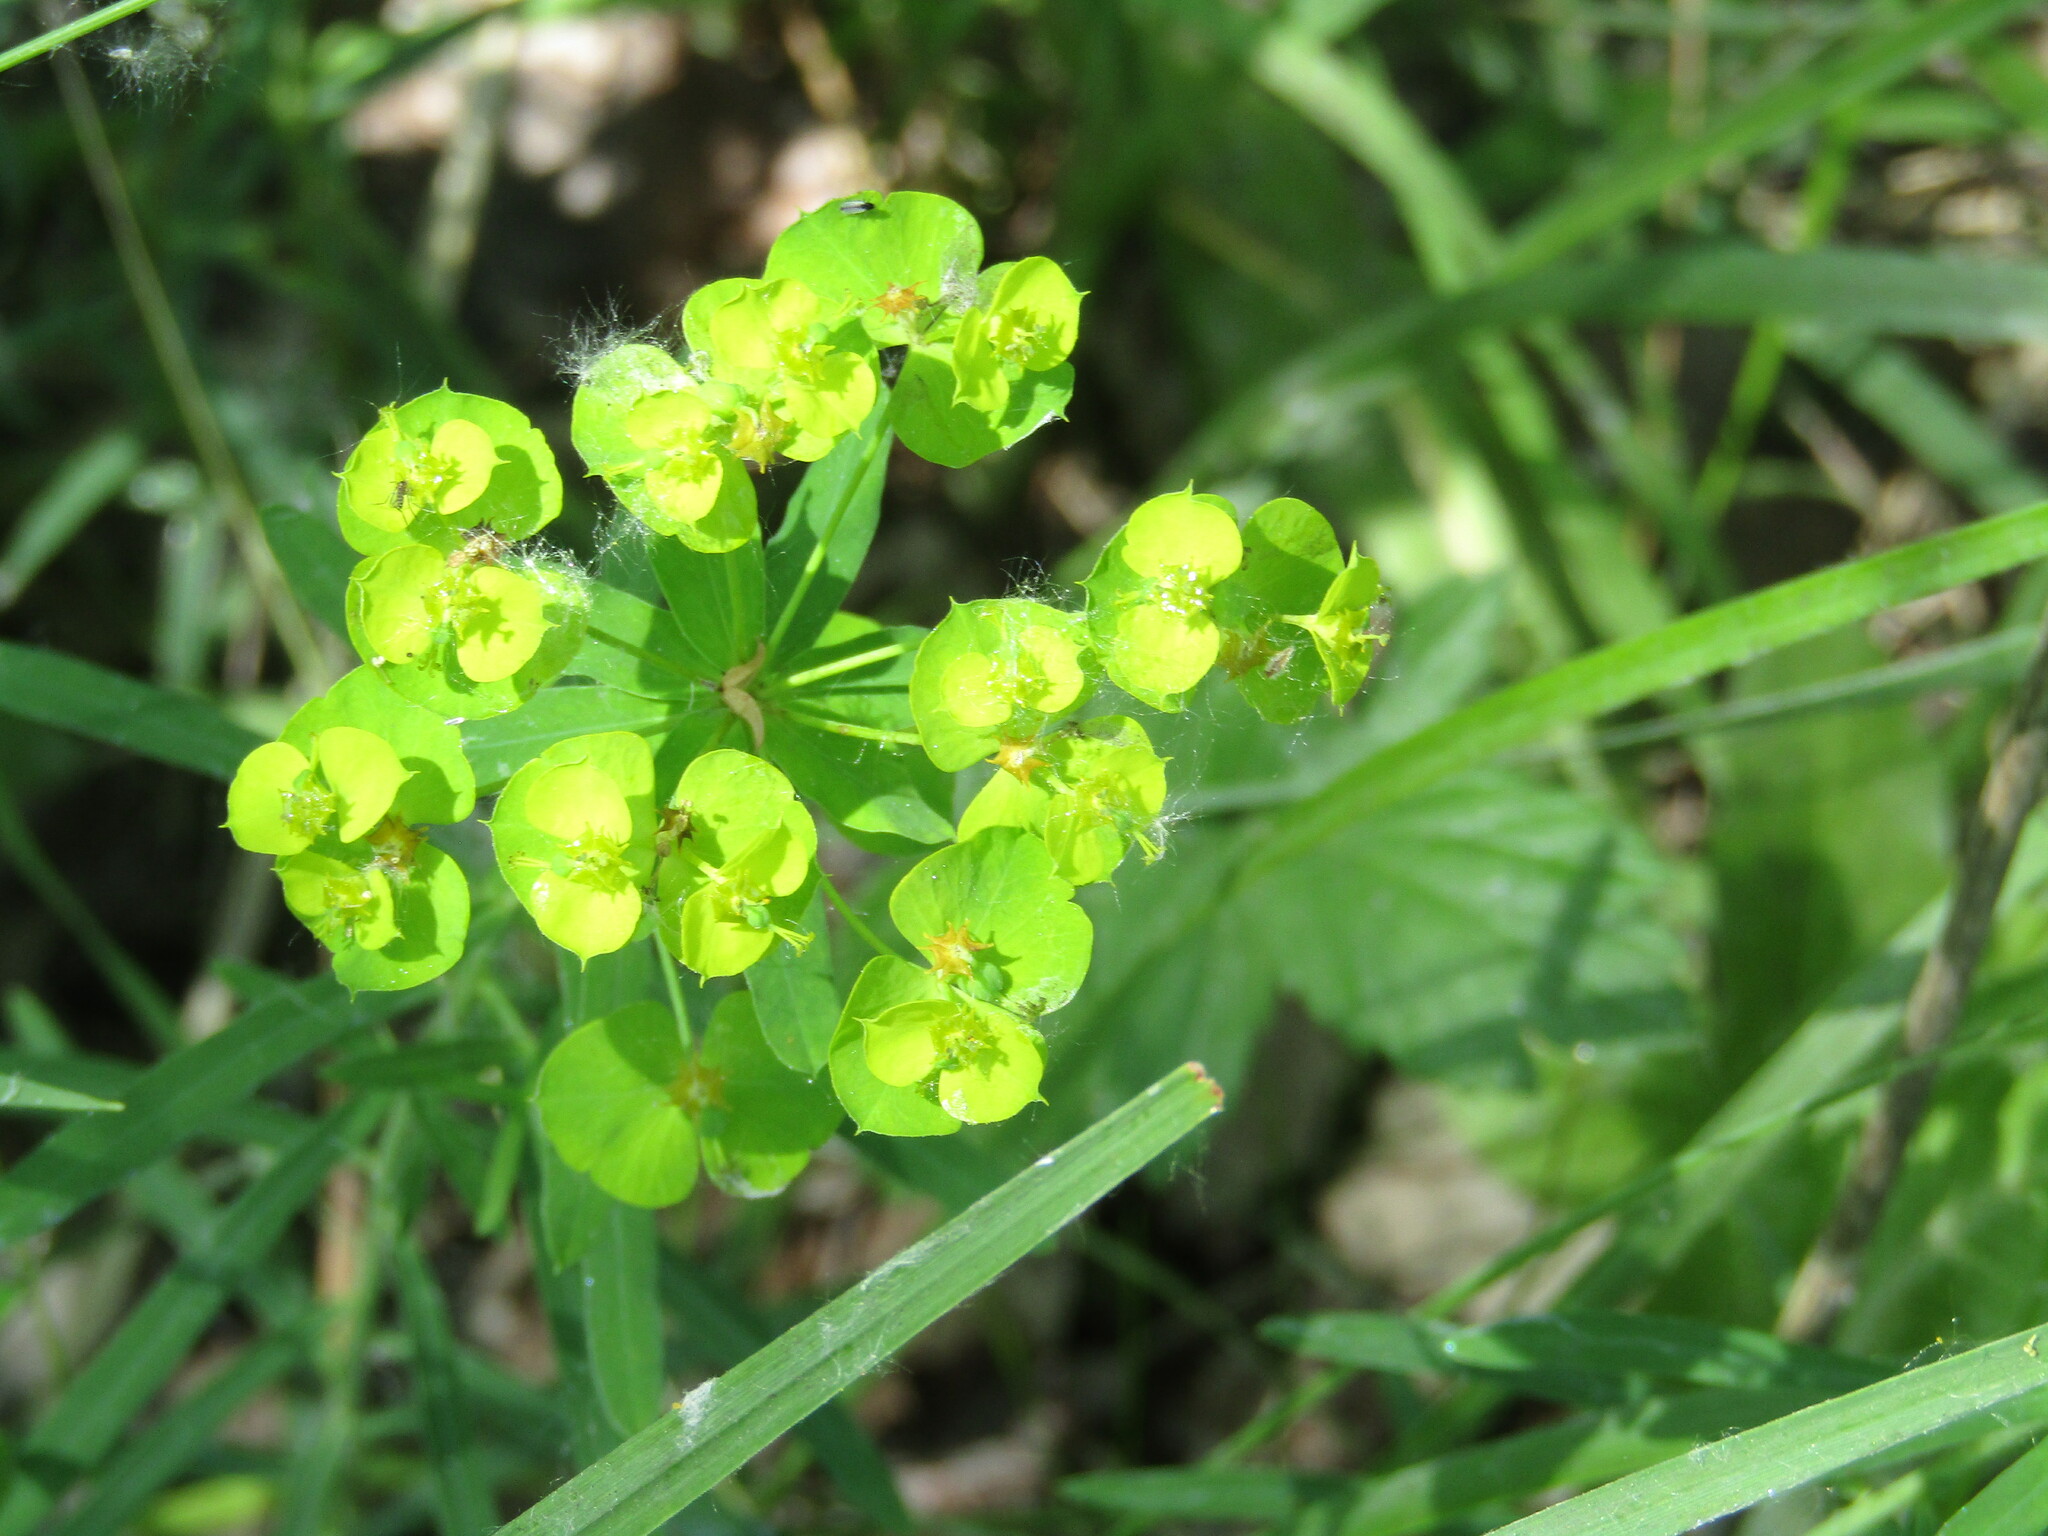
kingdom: Plantae
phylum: Tracheophyta
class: Magnoliopsida
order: Malpighiales
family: Euphorbiaceae
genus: Euphorbia
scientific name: Euphorbia virgata
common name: Leafy spurge
